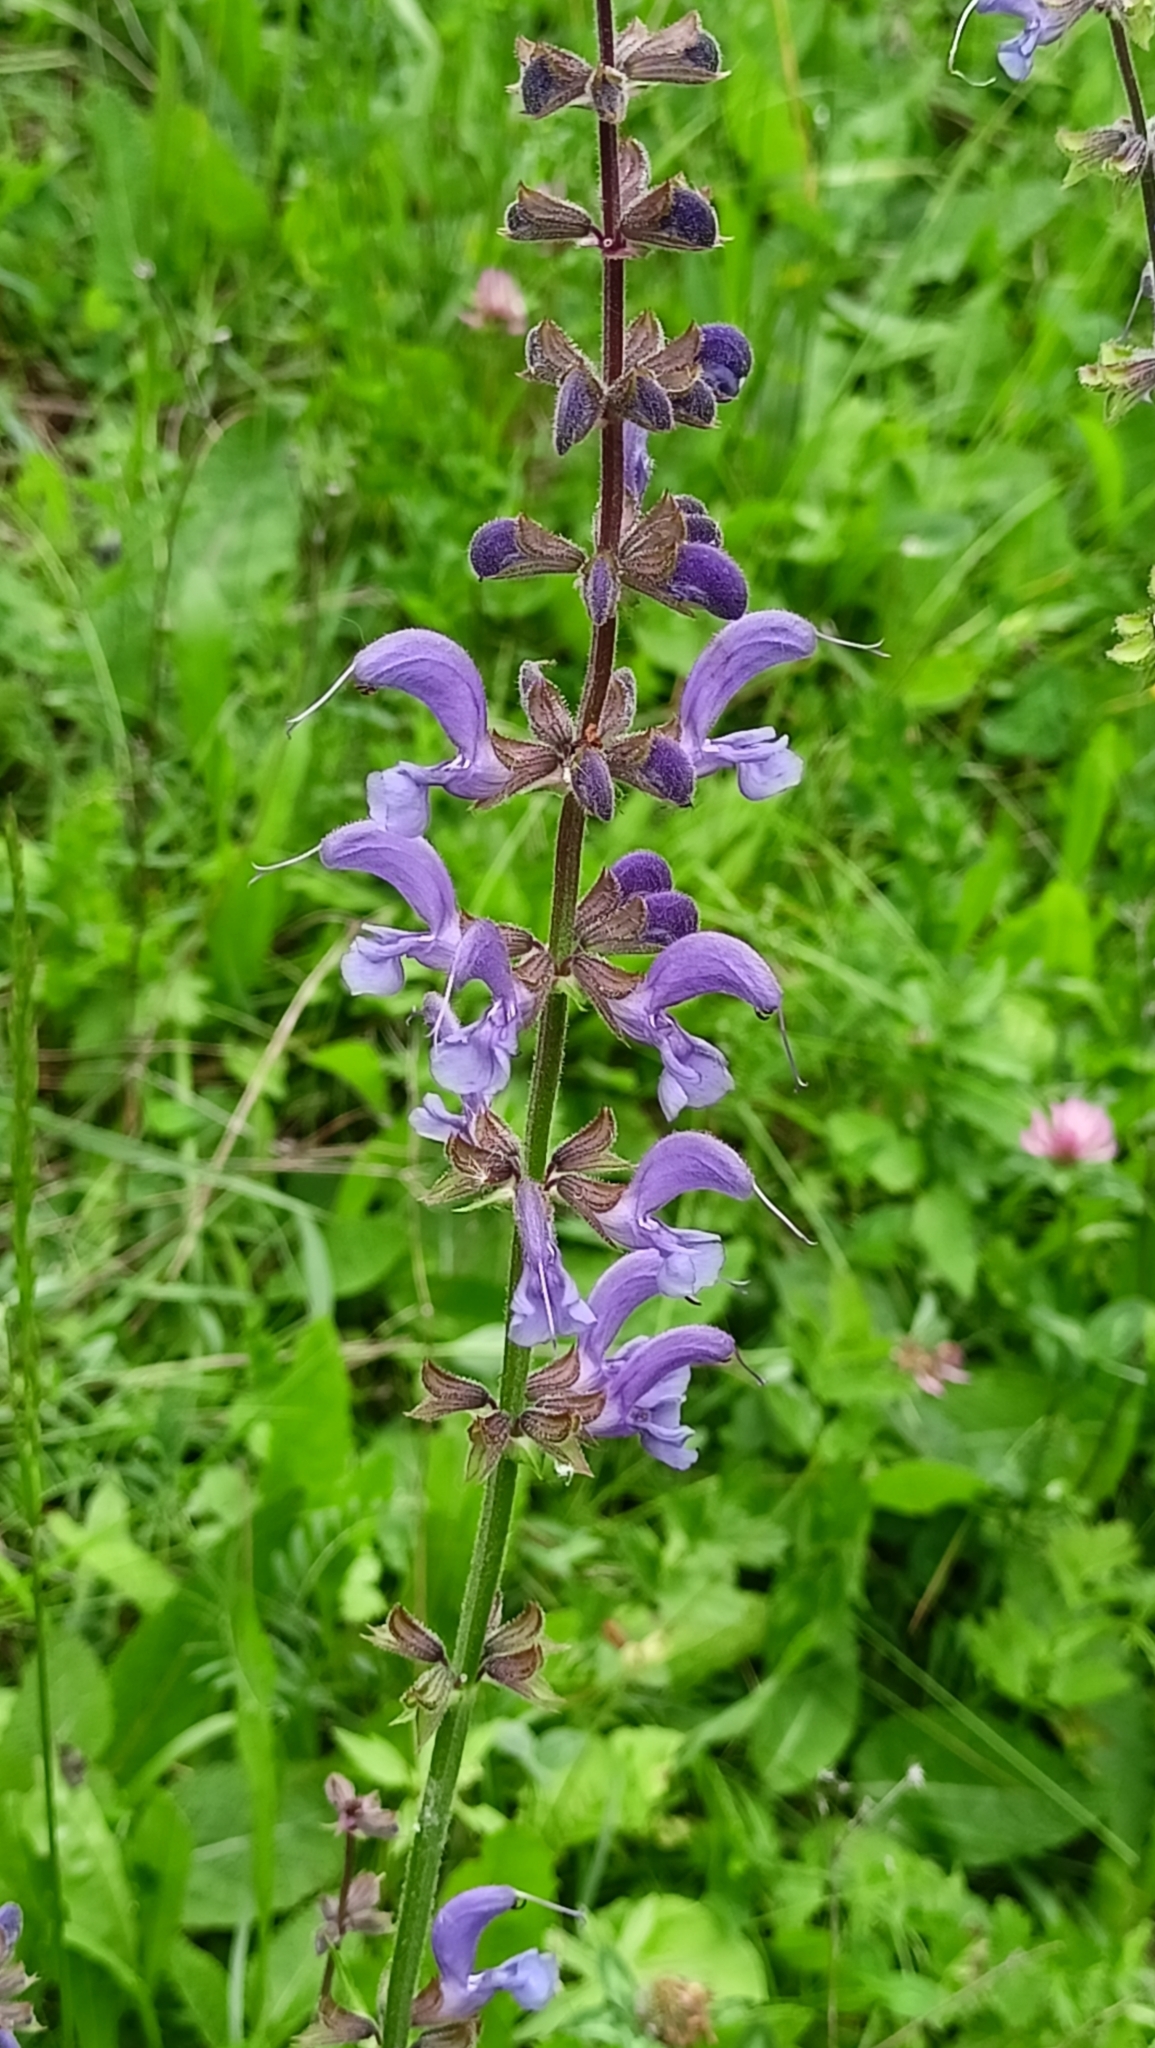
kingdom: Plantae
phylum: Tracheophyta
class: Magnoliopsida
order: Lamiales
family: Lamiaceae
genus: Salvia
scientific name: Salvia pratensis
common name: Meadow sage
